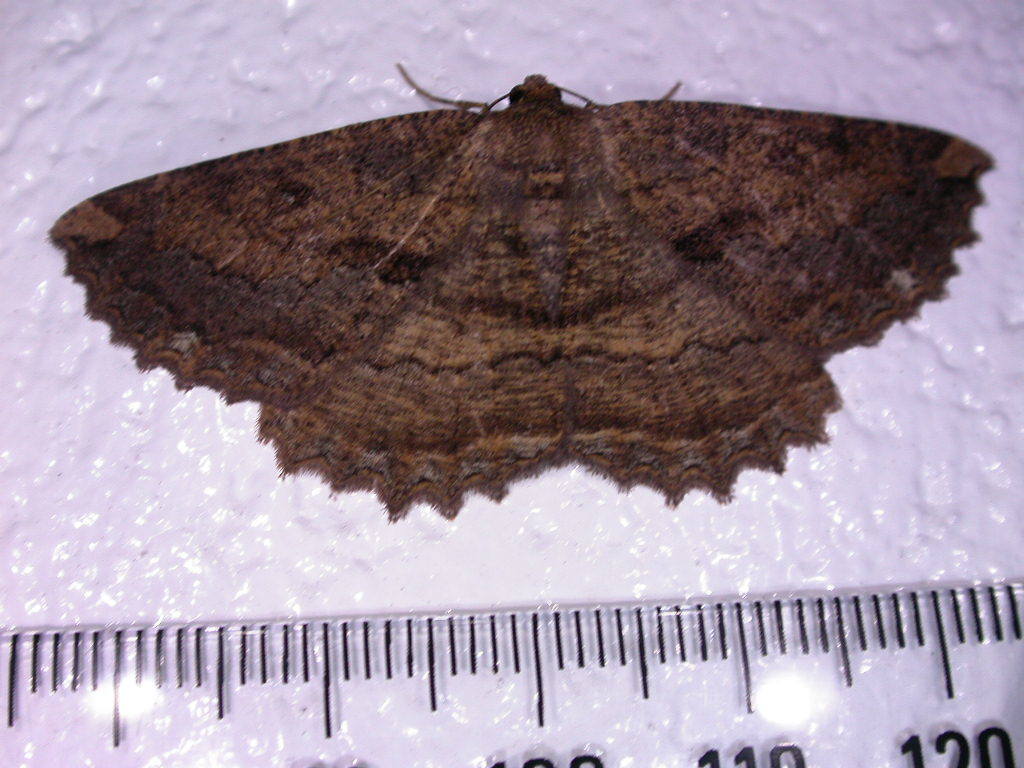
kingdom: Animalia
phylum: Arthropoda
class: Insecta
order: Lepidoptera
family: Geometridae
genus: Gellonia
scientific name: Gellonia dejectaria
